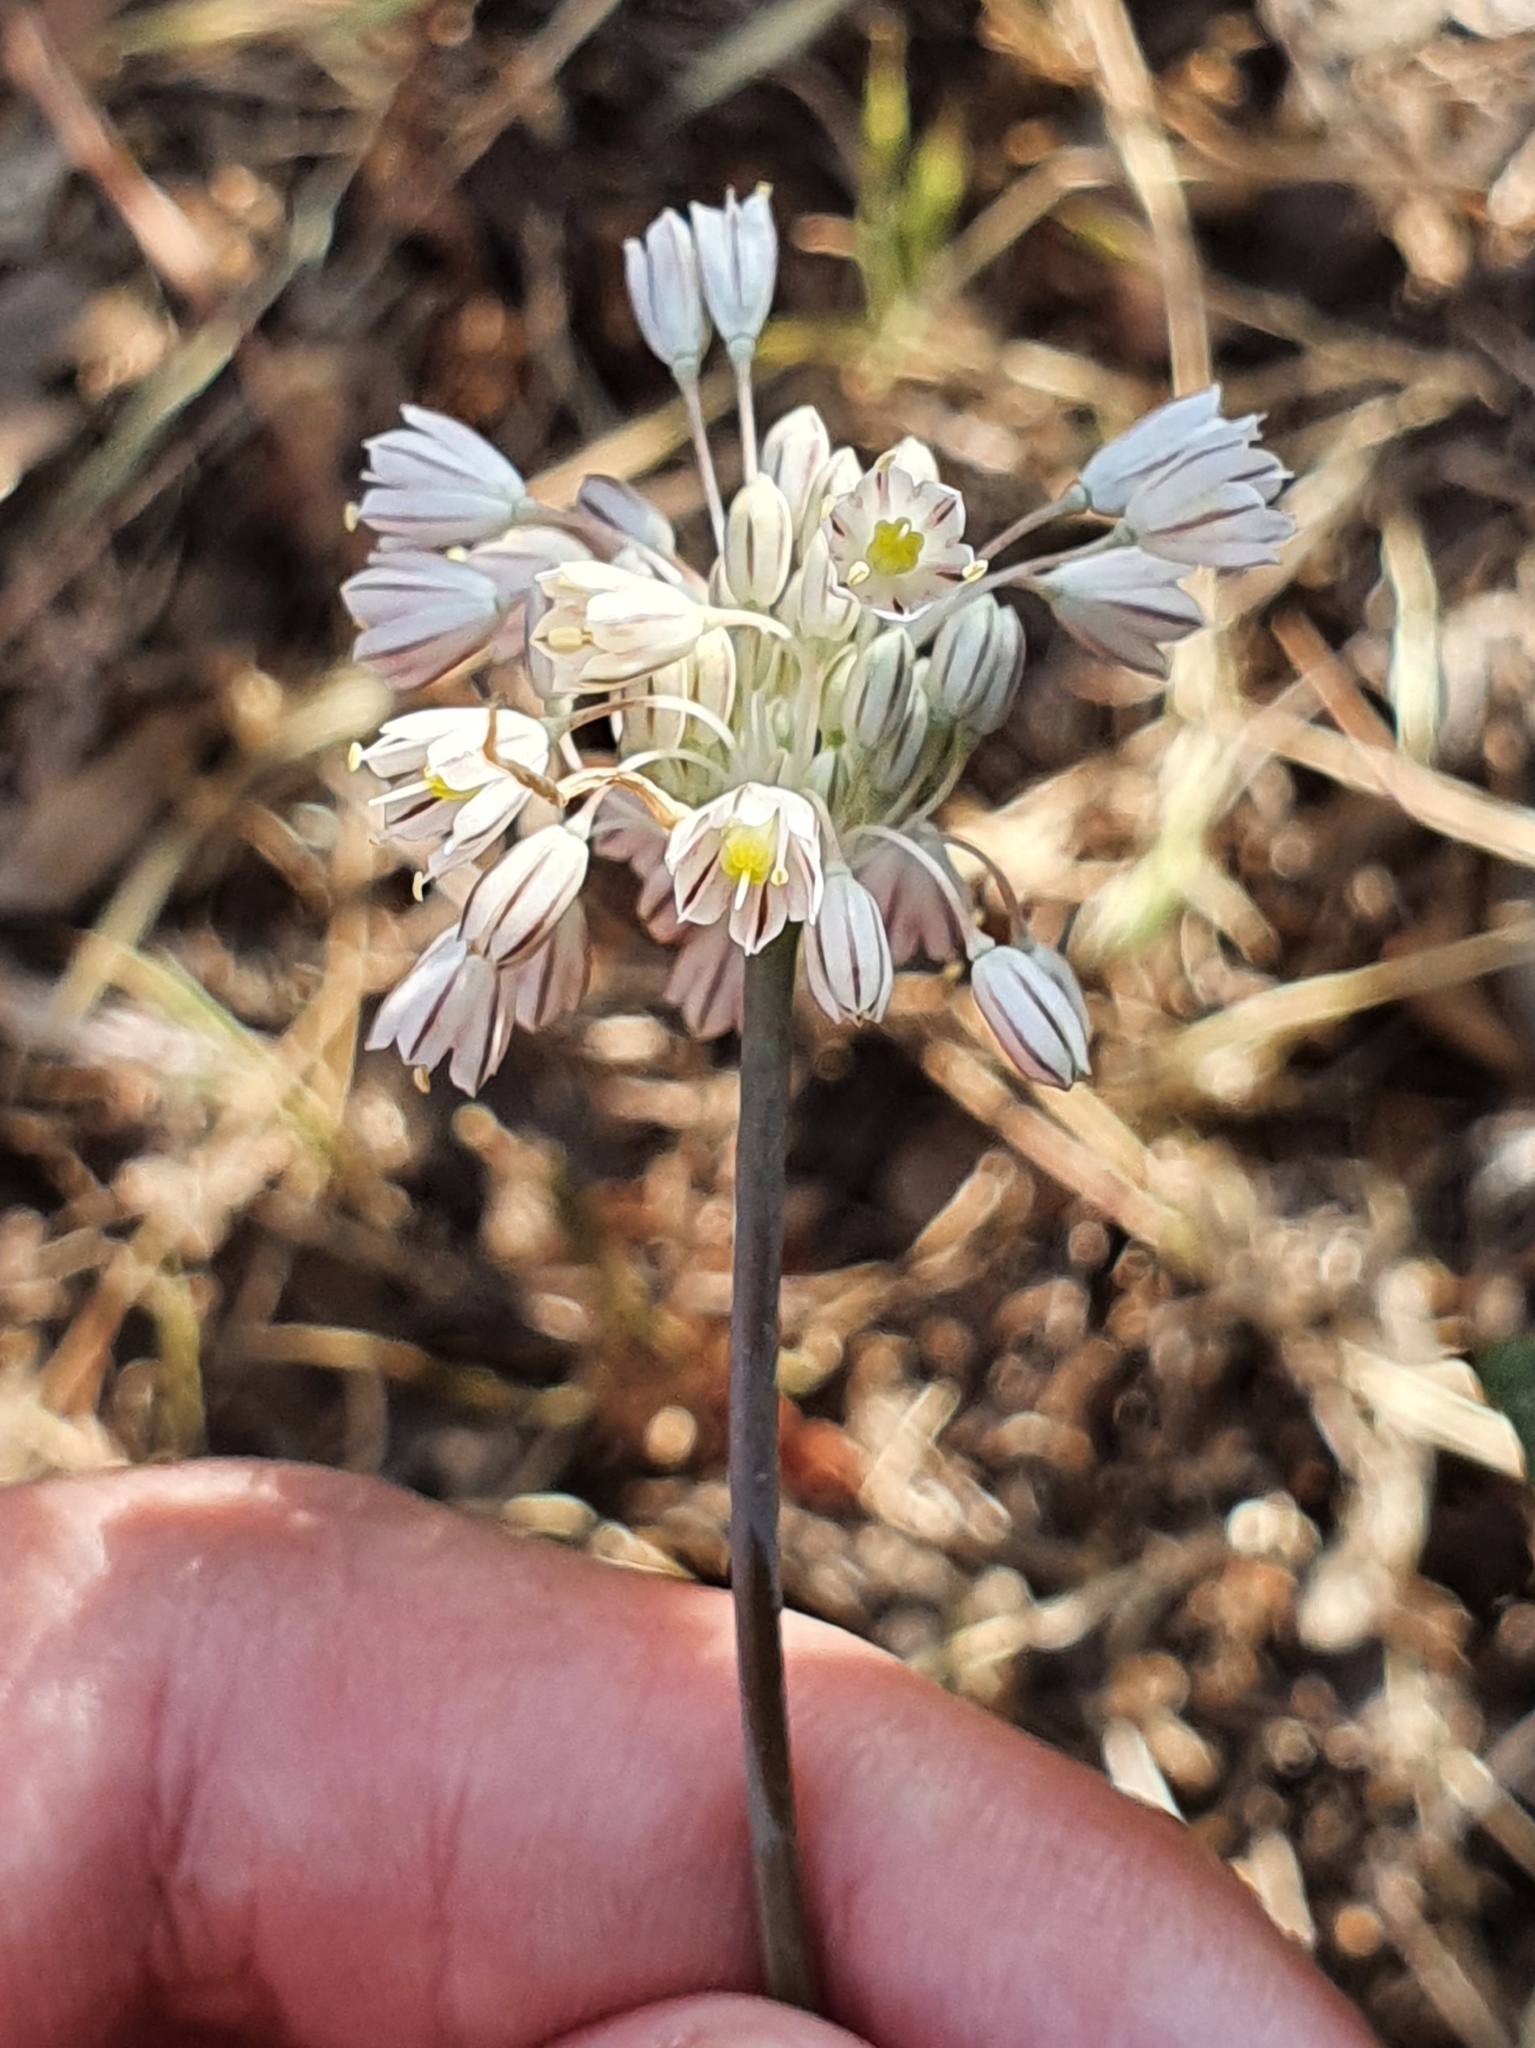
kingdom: Plantae
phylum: Tracheophyta
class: Liliopsida
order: Asparagales
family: Amaryllidaceae
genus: Allium
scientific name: Allium antiatlanticum
